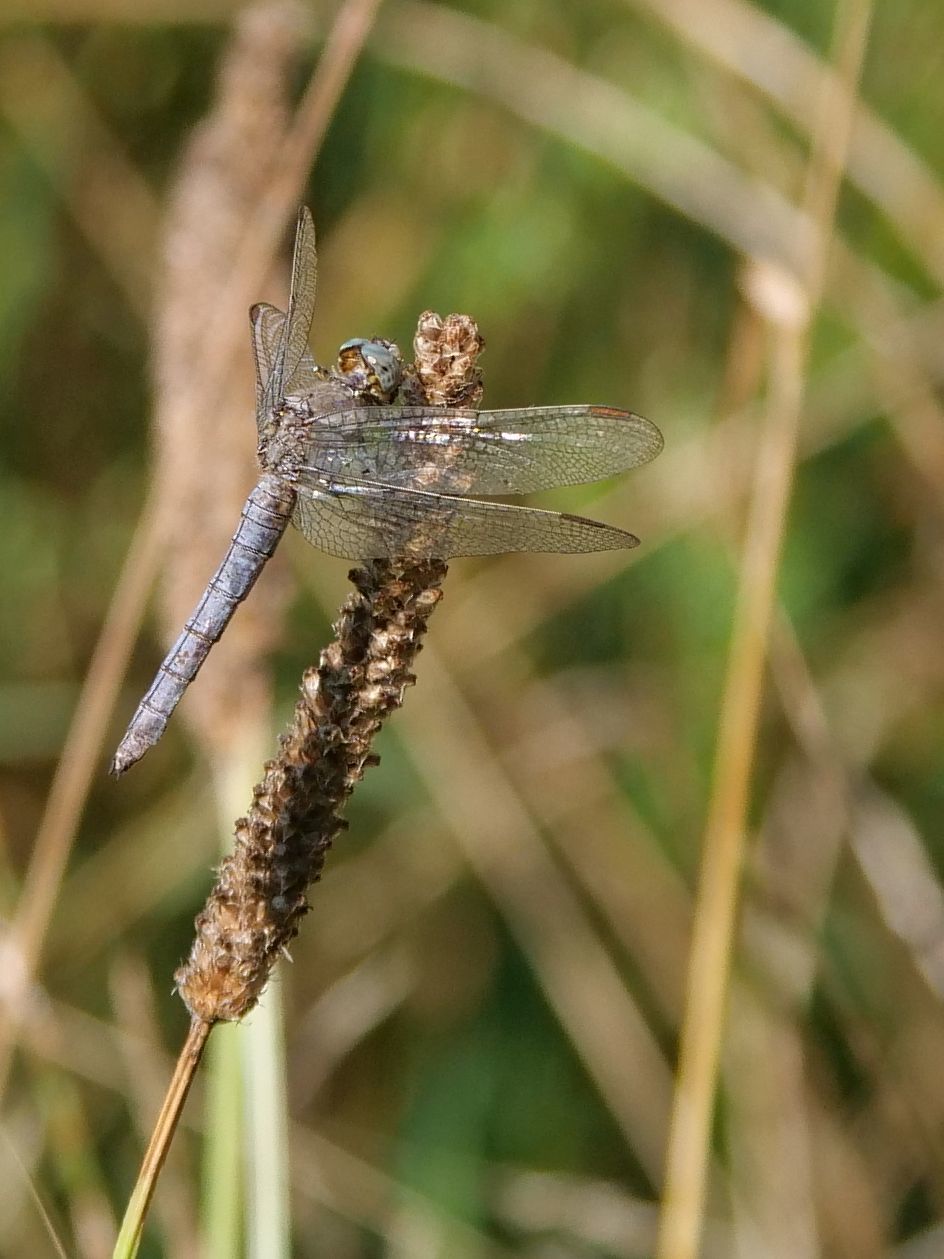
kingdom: Animalia
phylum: Arthropoda
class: Insecta
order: Odonata
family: Libellulidae
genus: Orthetrum
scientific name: Orthetrum coerulescens
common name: Keeled skimmer
